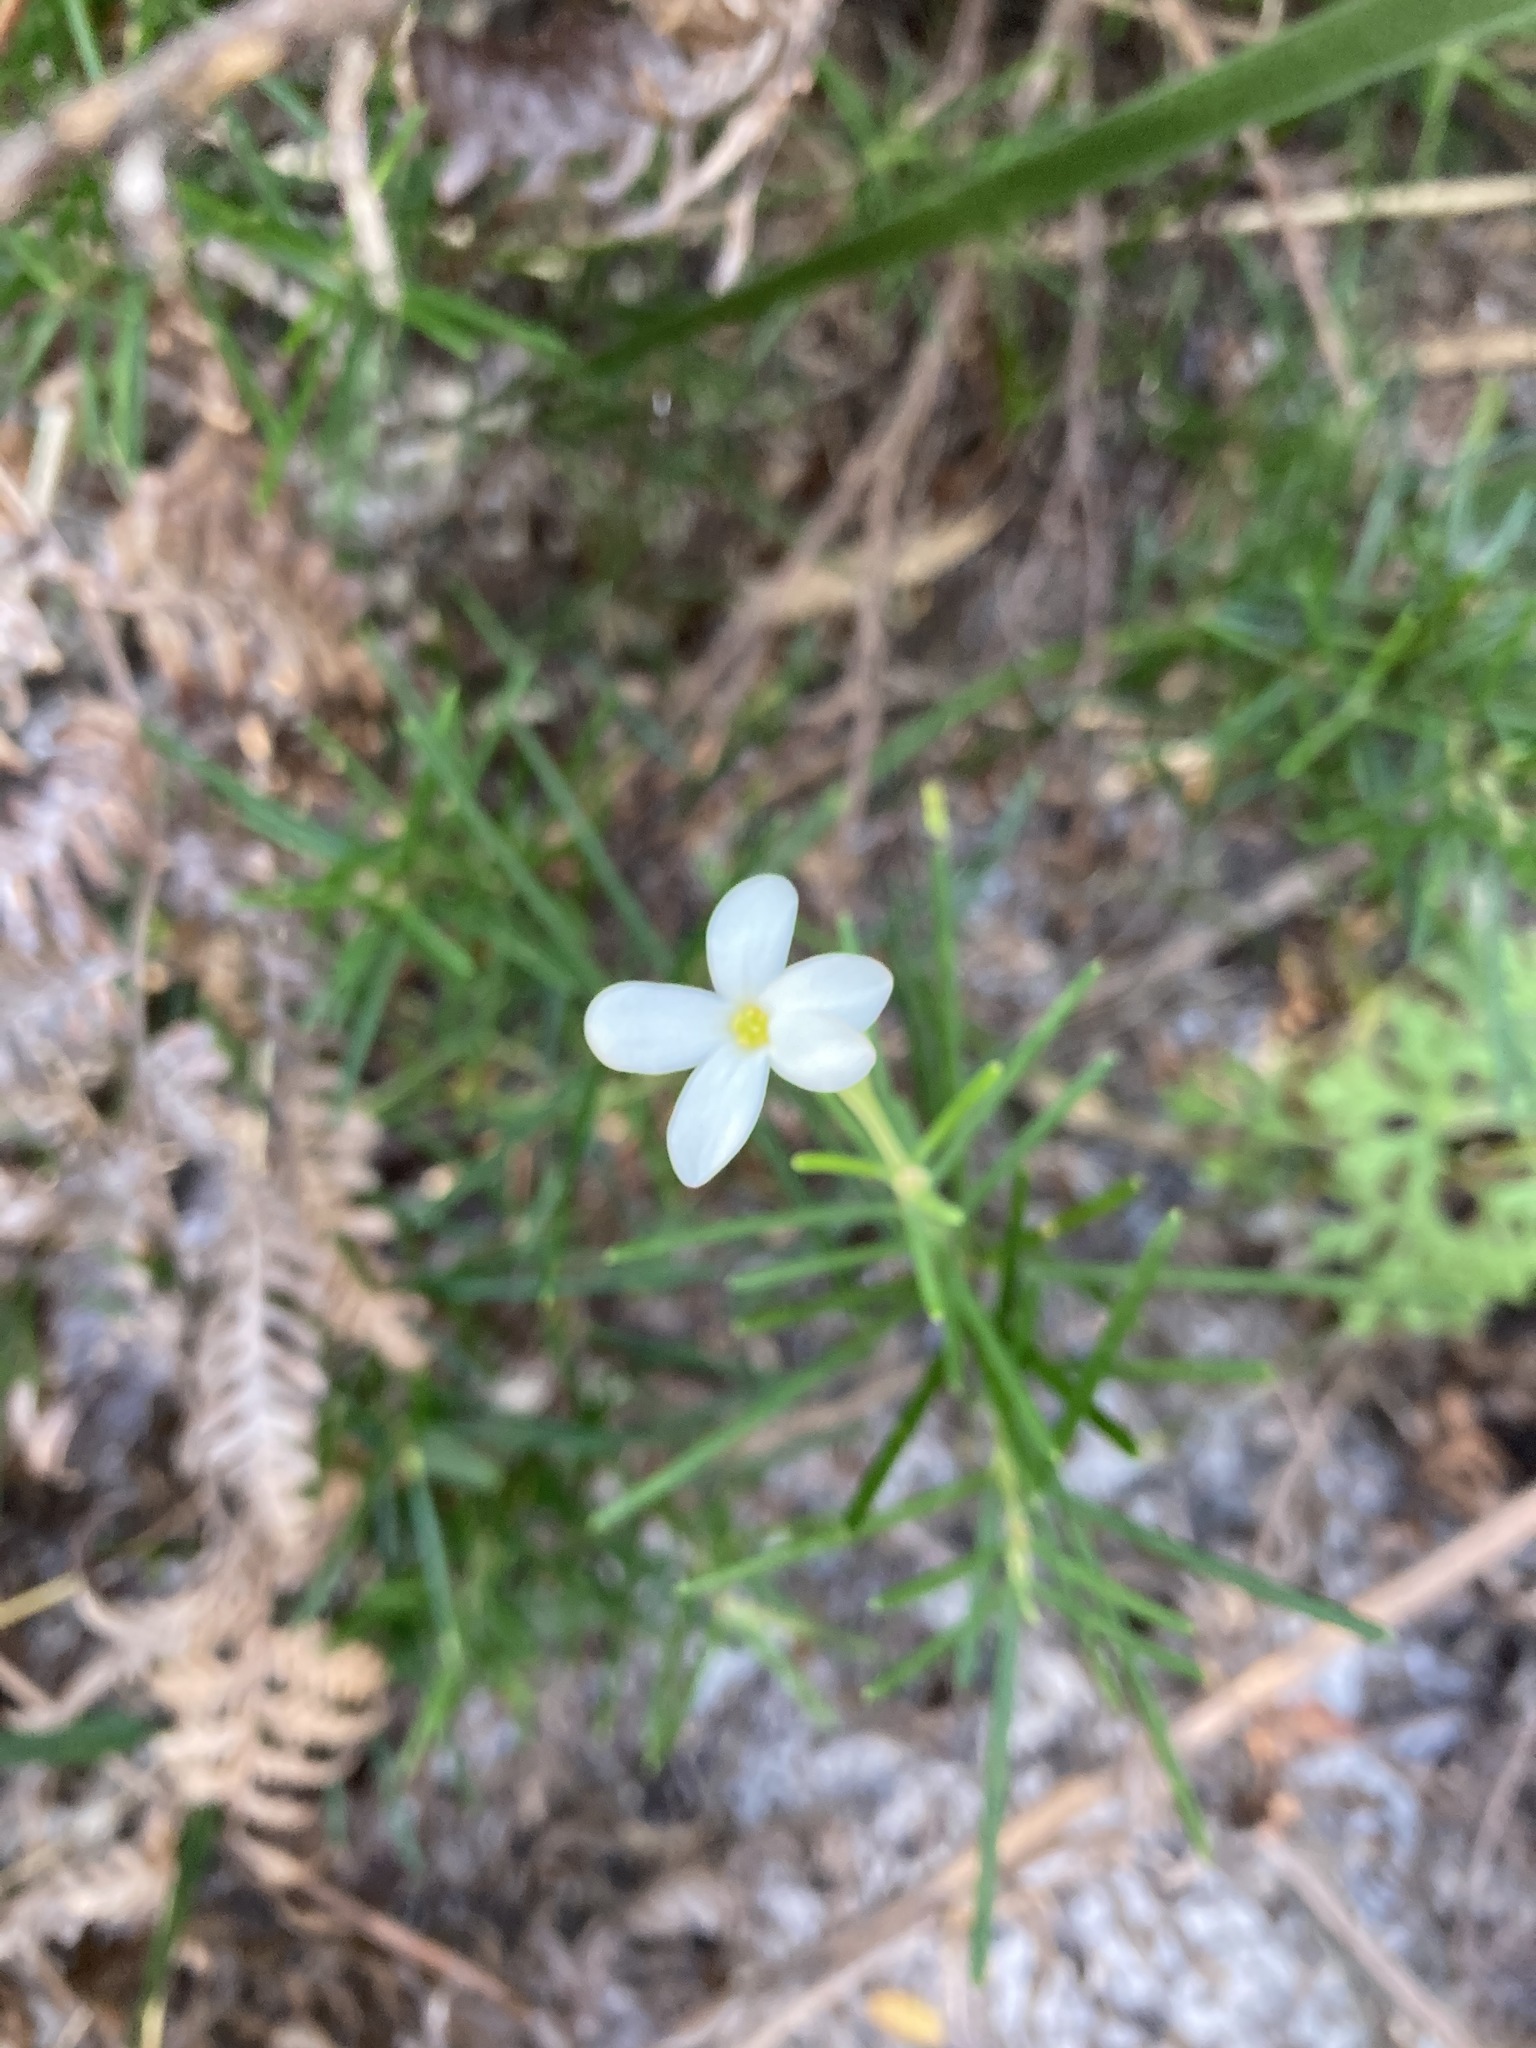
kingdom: Plantae
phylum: Tracheophyta
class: Magnoliopsida
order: Malpighiales
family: Euphorbiaceae
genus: Ricinocarpos
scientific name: Ricinocarpos pinifolius
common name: Weddingbush
